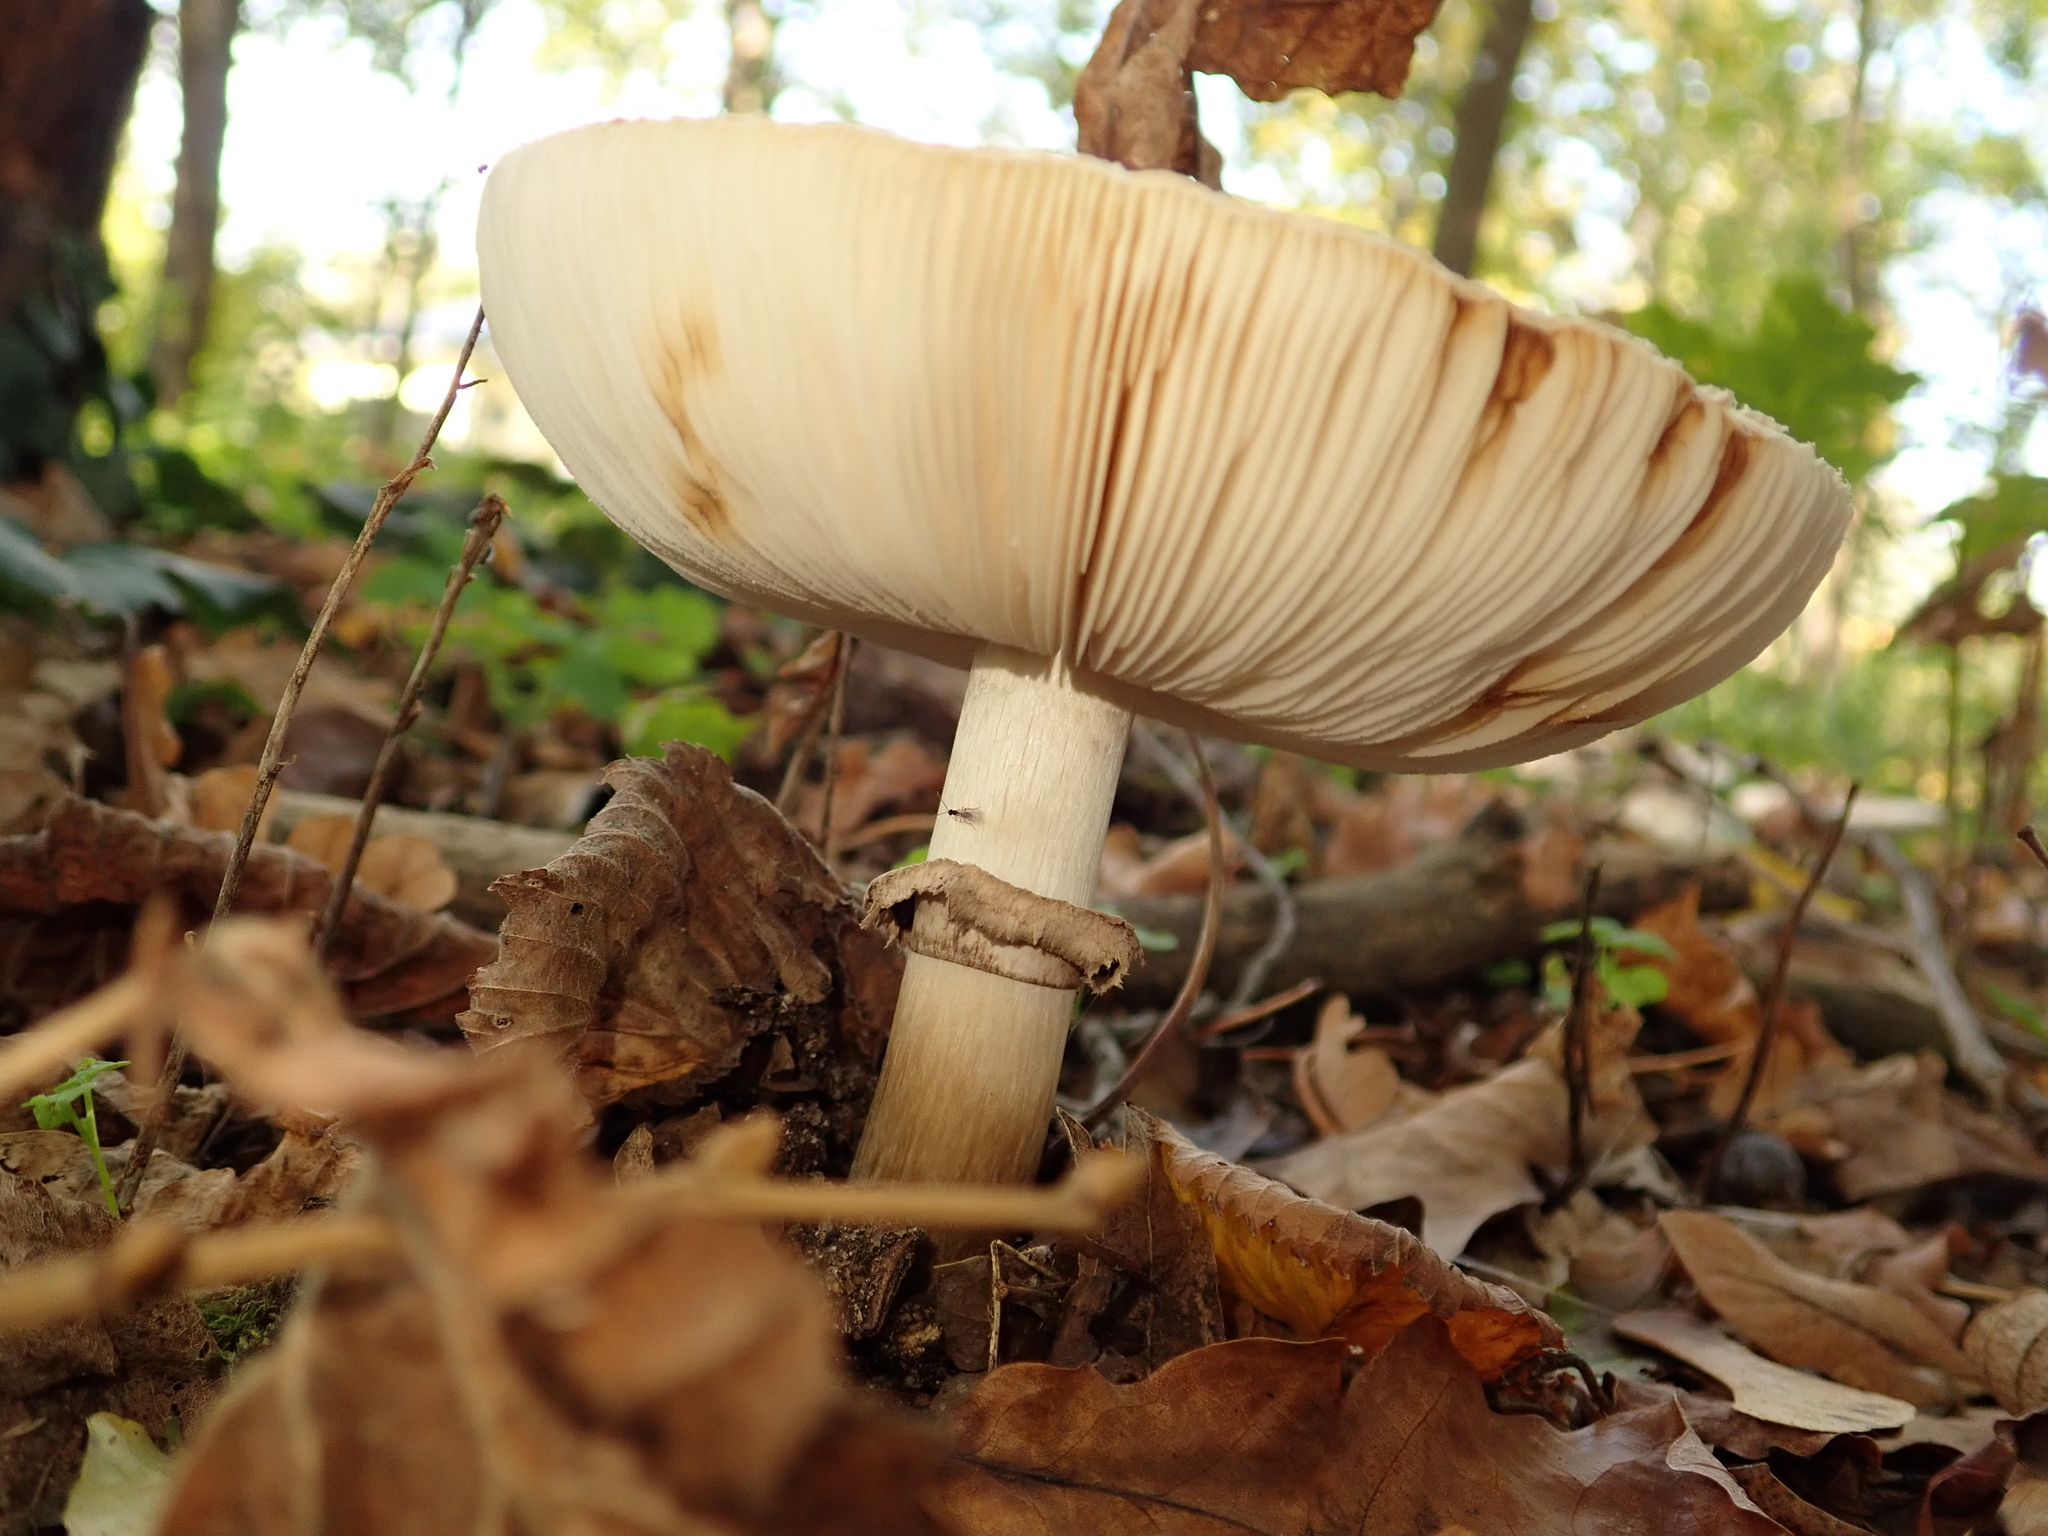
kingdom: Fungi
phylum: Basidiomycota
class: Agaricomycetes
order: Agaricales
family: Agaricaceae
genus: Macrolepiota
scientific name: Macrolepiota procera
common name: Parasol
